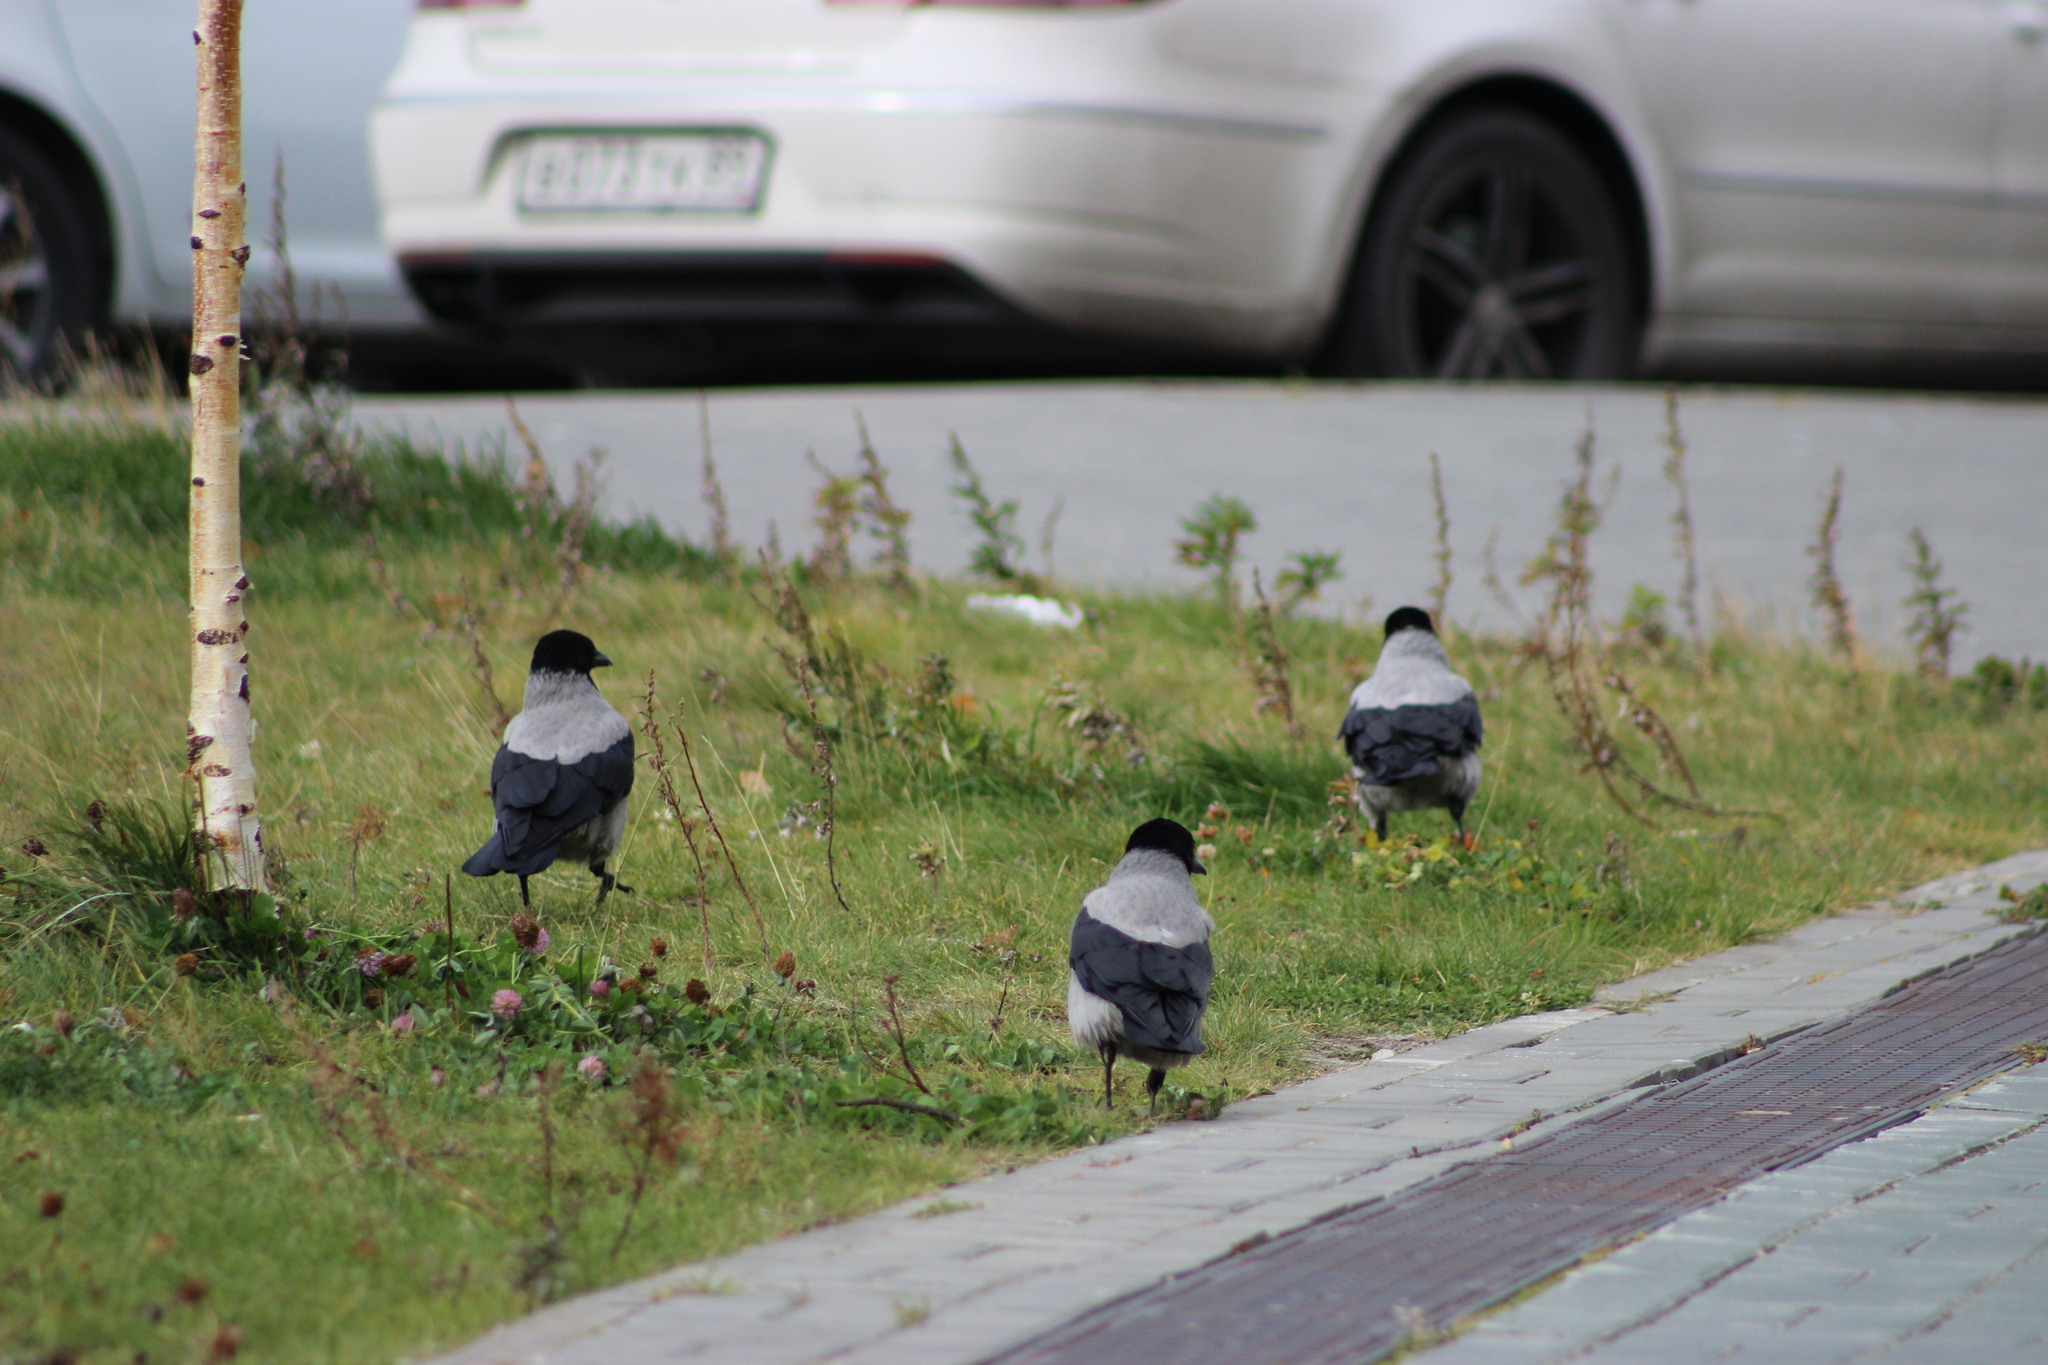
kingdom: Animalia
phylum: Chordata
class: Aves
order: Passeriformes
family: Corvidae
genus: Corvus
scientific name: Corvus cornix
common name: Hooded crow
